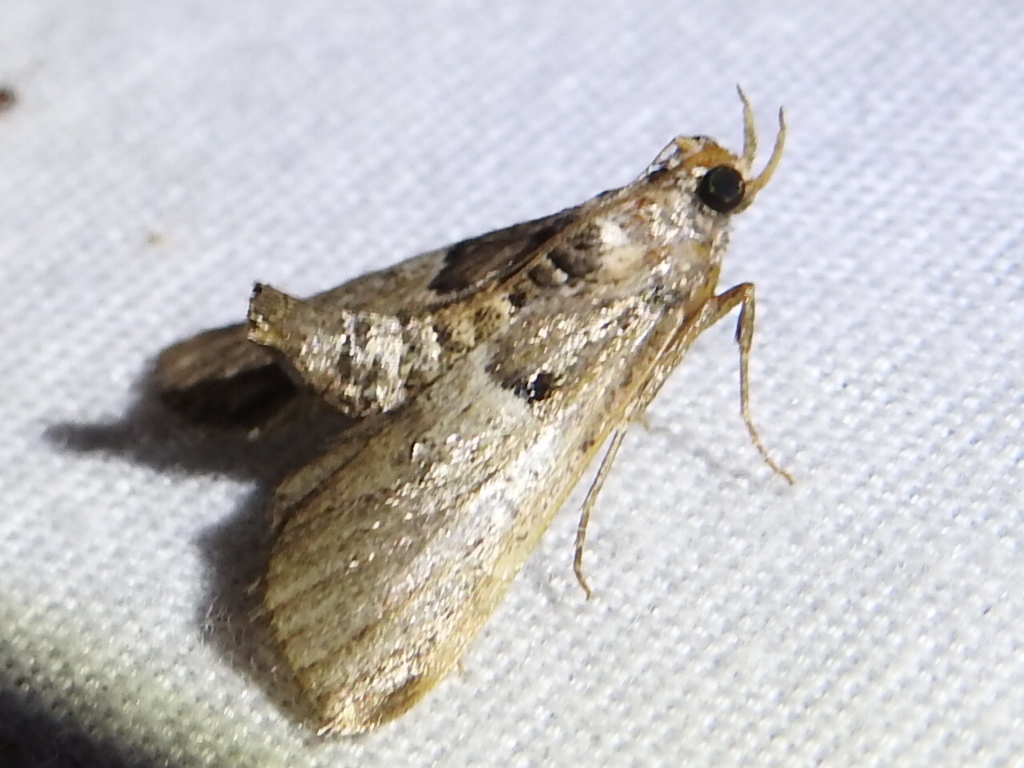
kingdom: Animalia
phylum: Arthropoda
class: Insecta
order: Lepidoptera
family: Pyralidae
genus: Macalla
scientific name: Macalla zelleri
